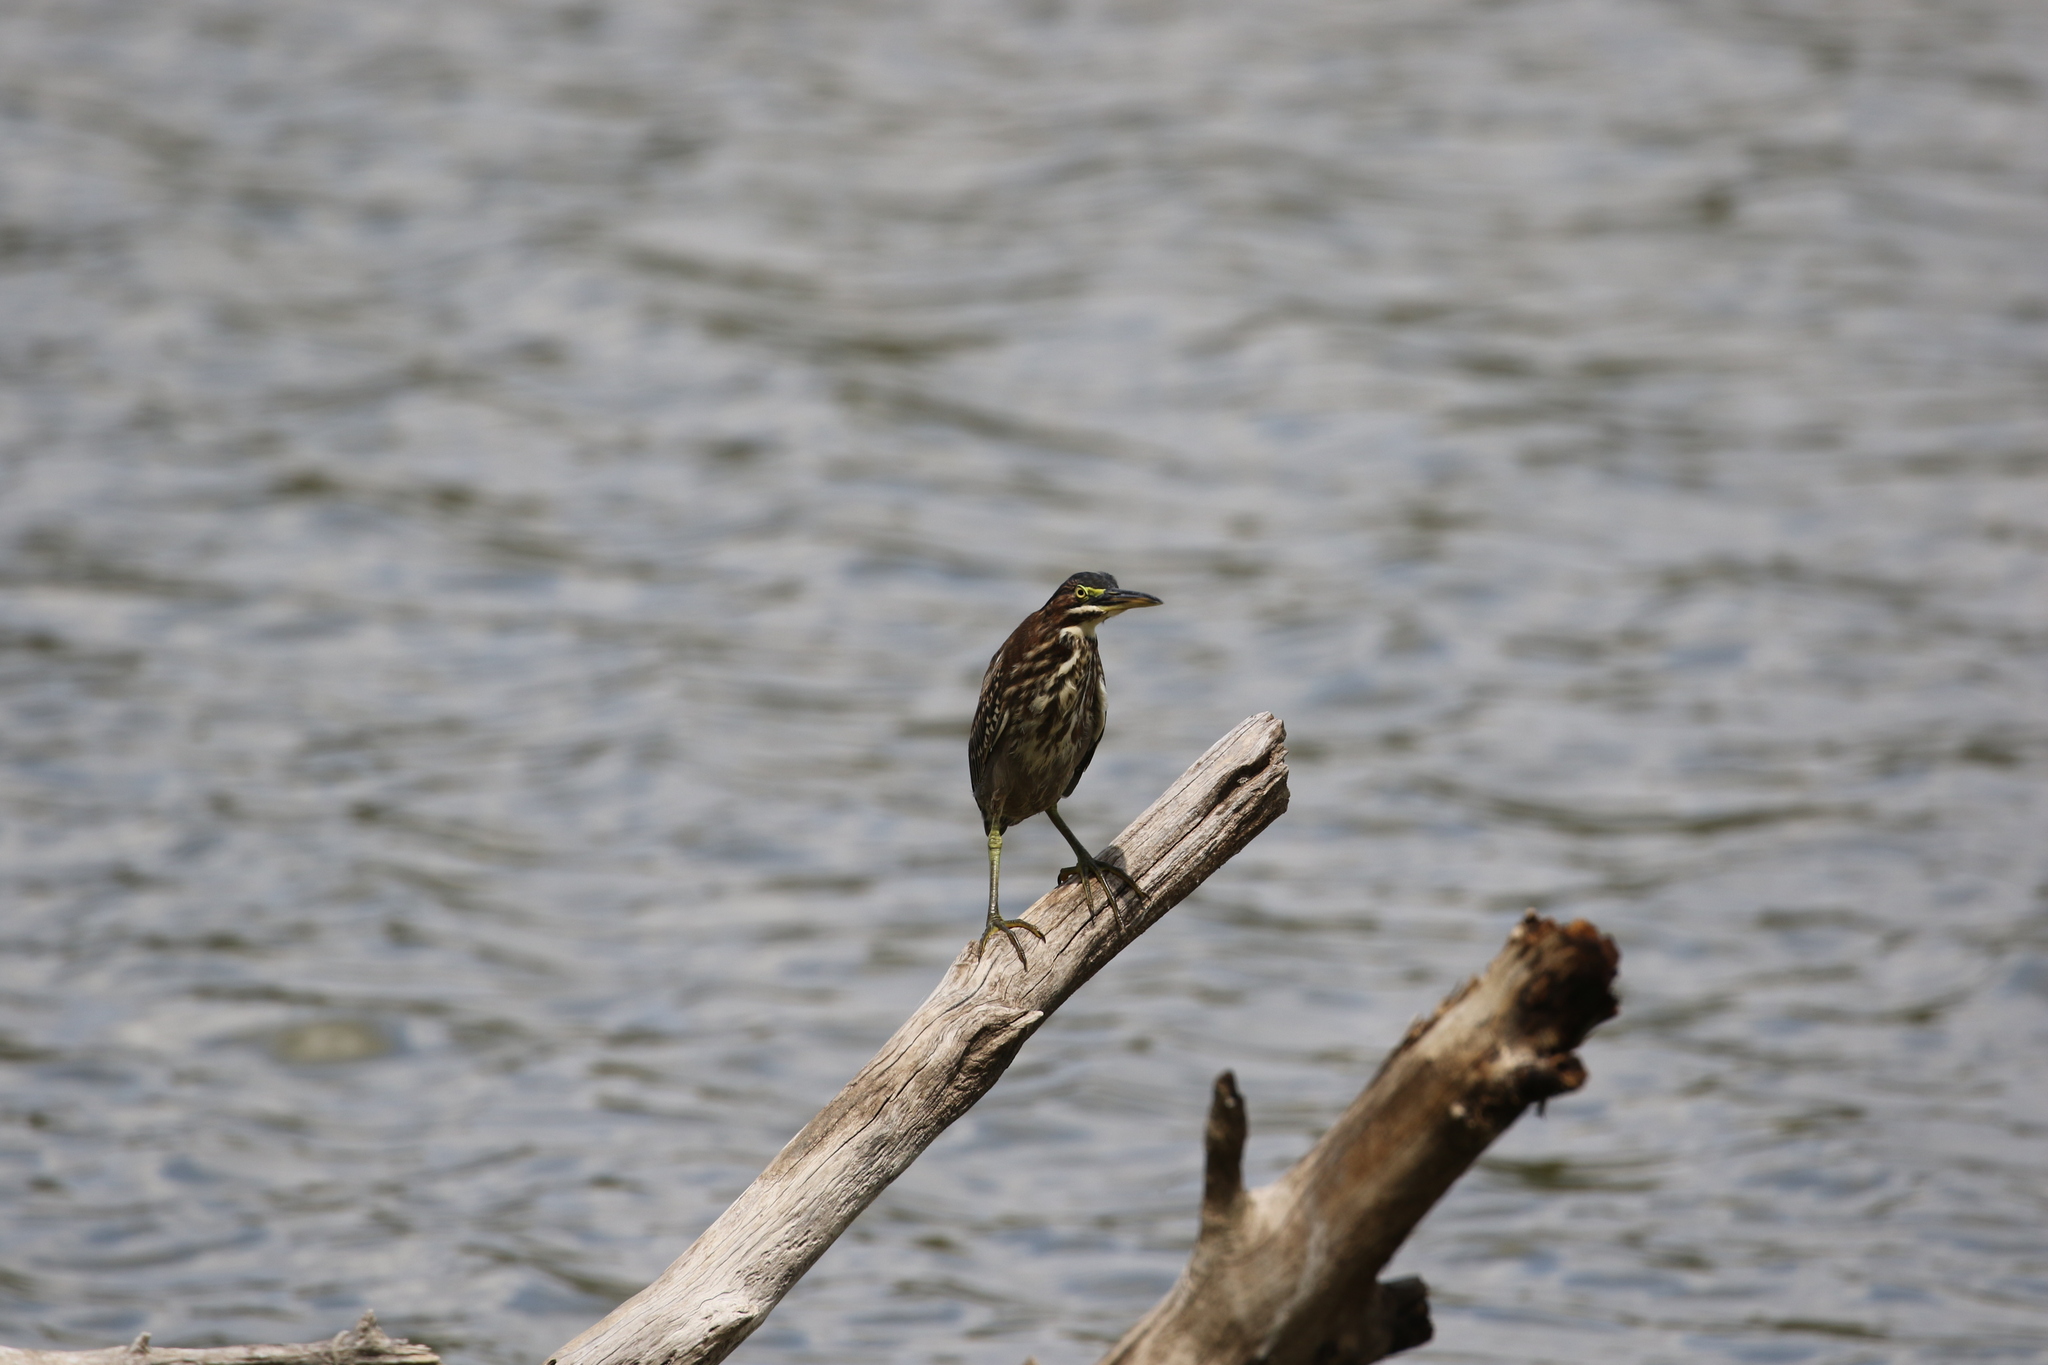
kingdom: Animalia
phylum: Chordata
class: Aves
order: Pelecaniformes
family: Ardeidae
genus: Butorides
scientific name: Butorides virescens
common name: Green heron
